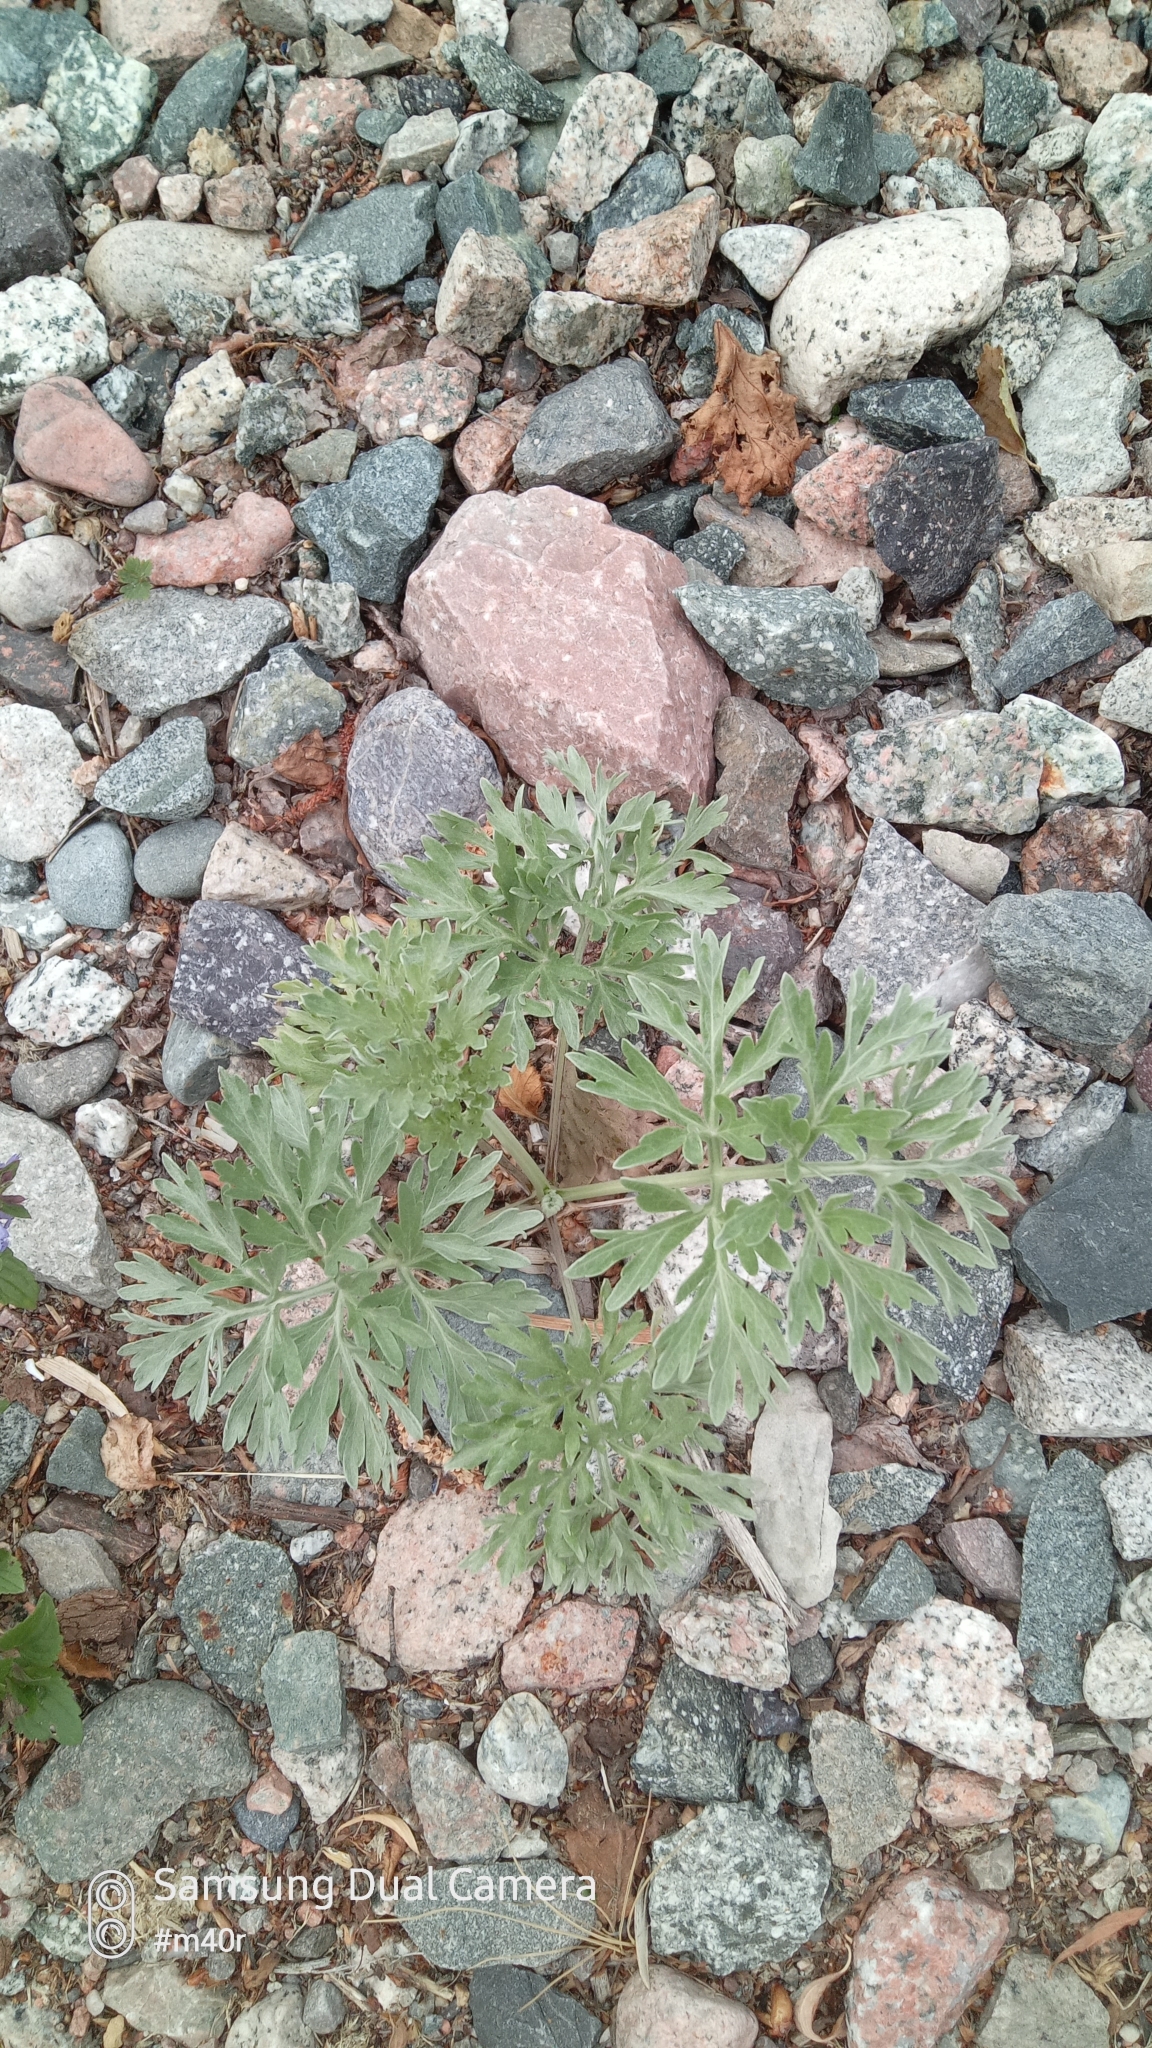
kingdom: Plantae
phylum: Tracheophyta
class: Magnoliopsida
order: Asterales
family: Asteraceae
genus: Artemisia
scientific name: Artemisia absinthium
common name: Wormwood
